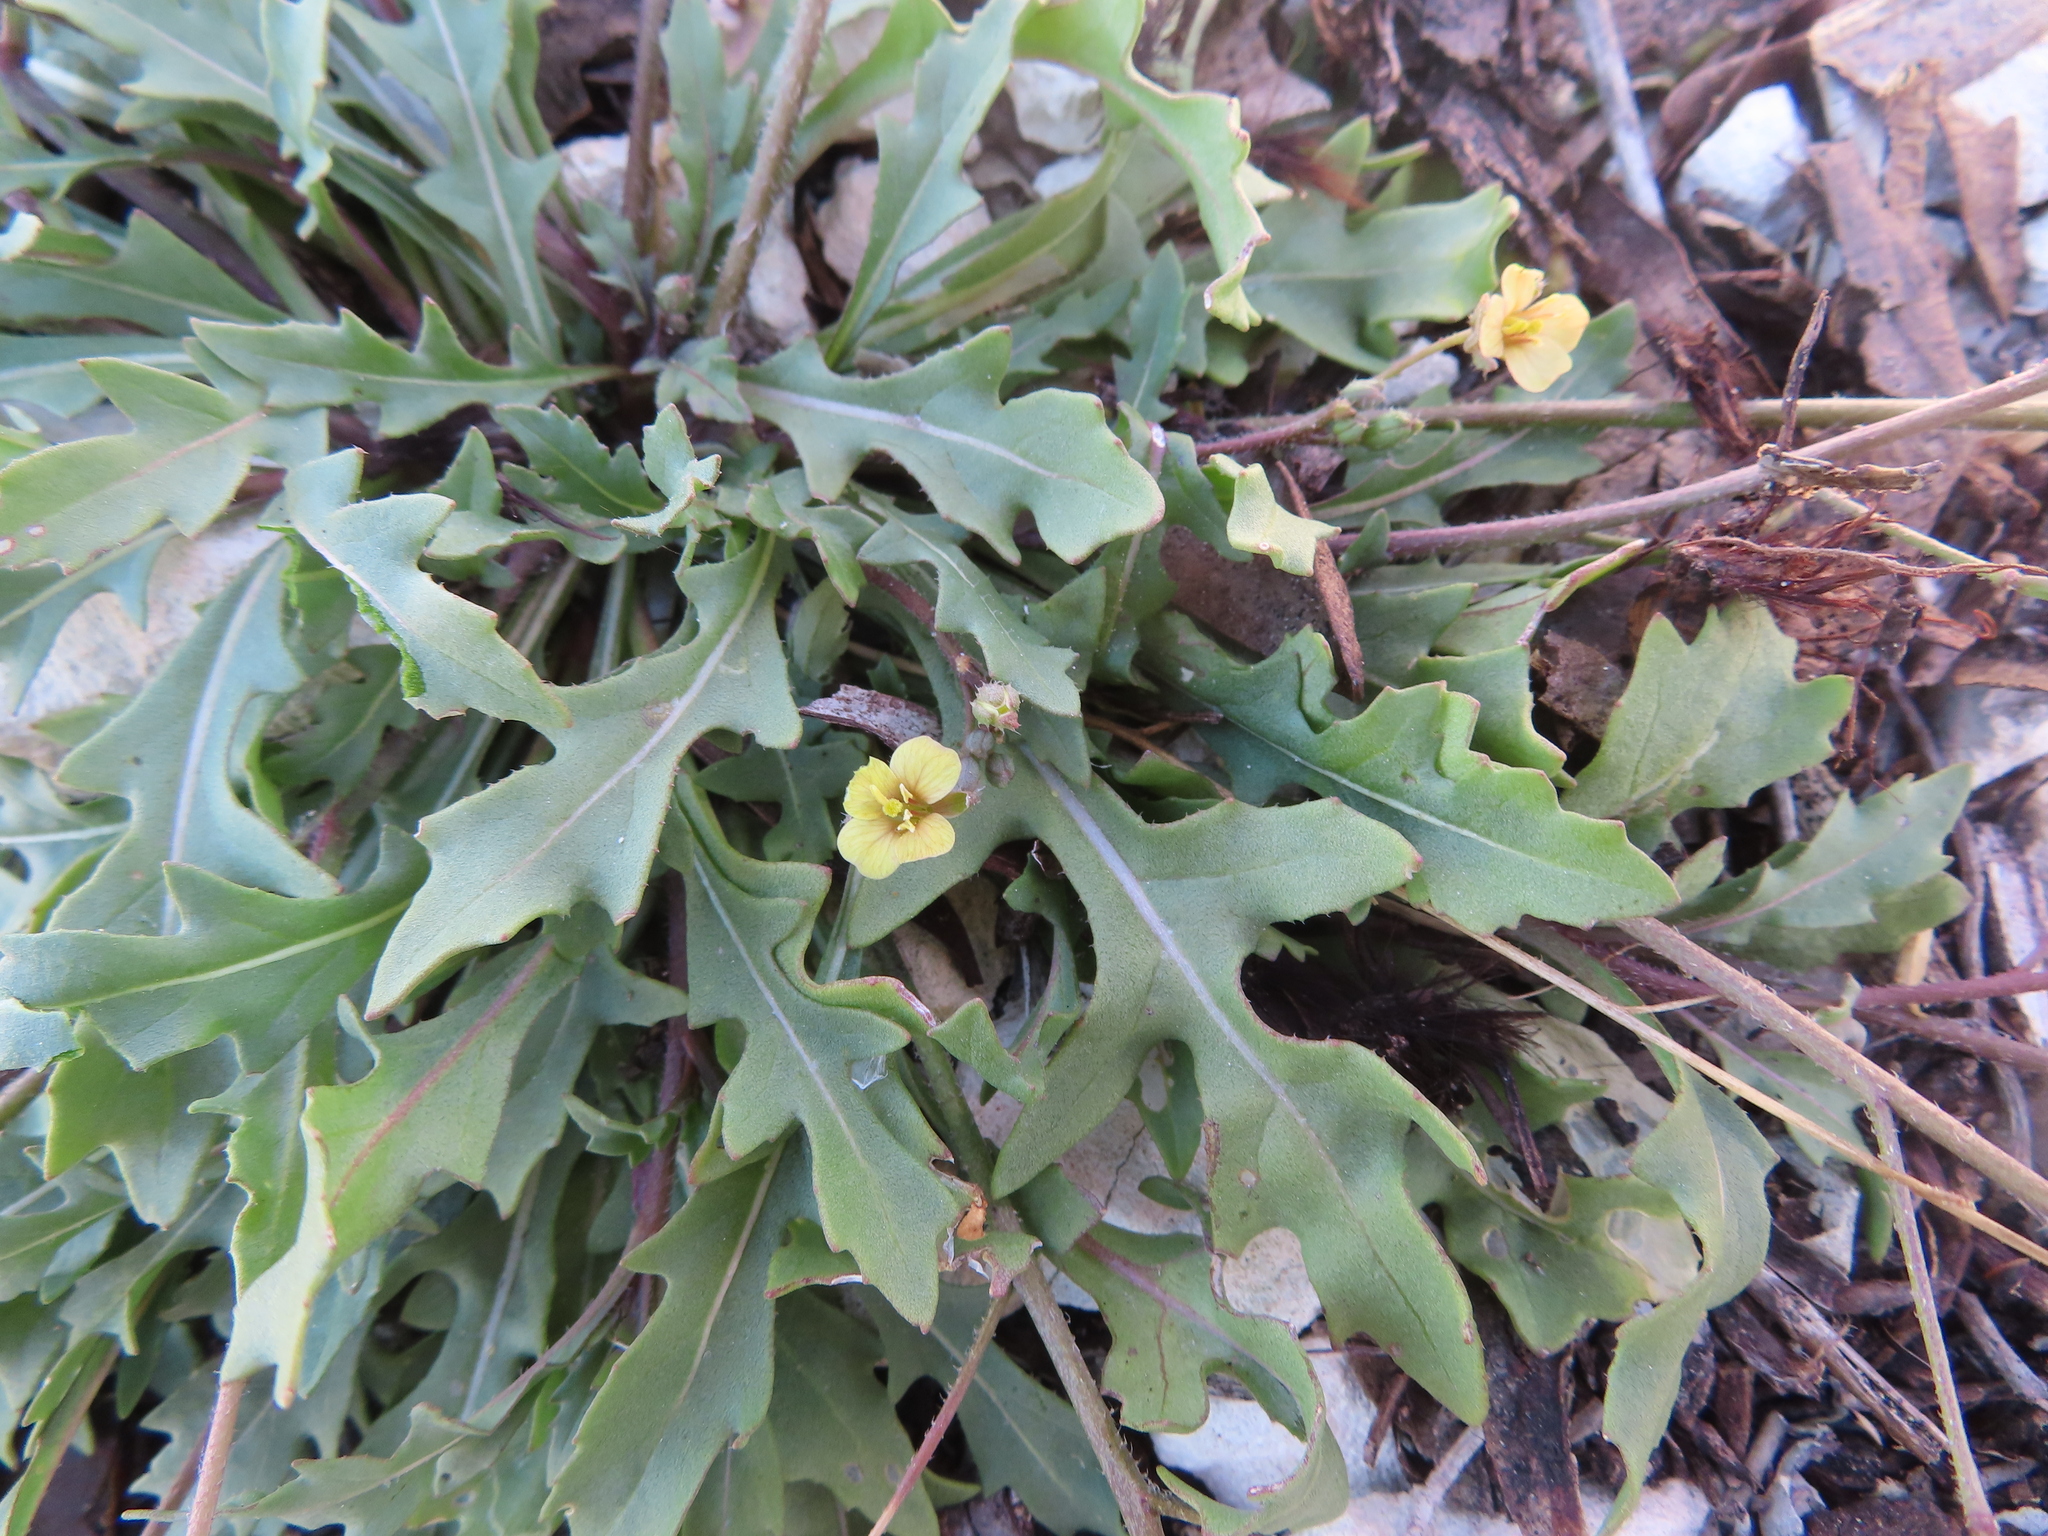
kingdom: Plantae
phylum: Tracheophyta
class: Magnoliopsida
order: Brassicales
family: Brassicaceae
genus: Diplotaxis
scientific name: Diplotaxis muralis
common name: Annual wall-rocket
